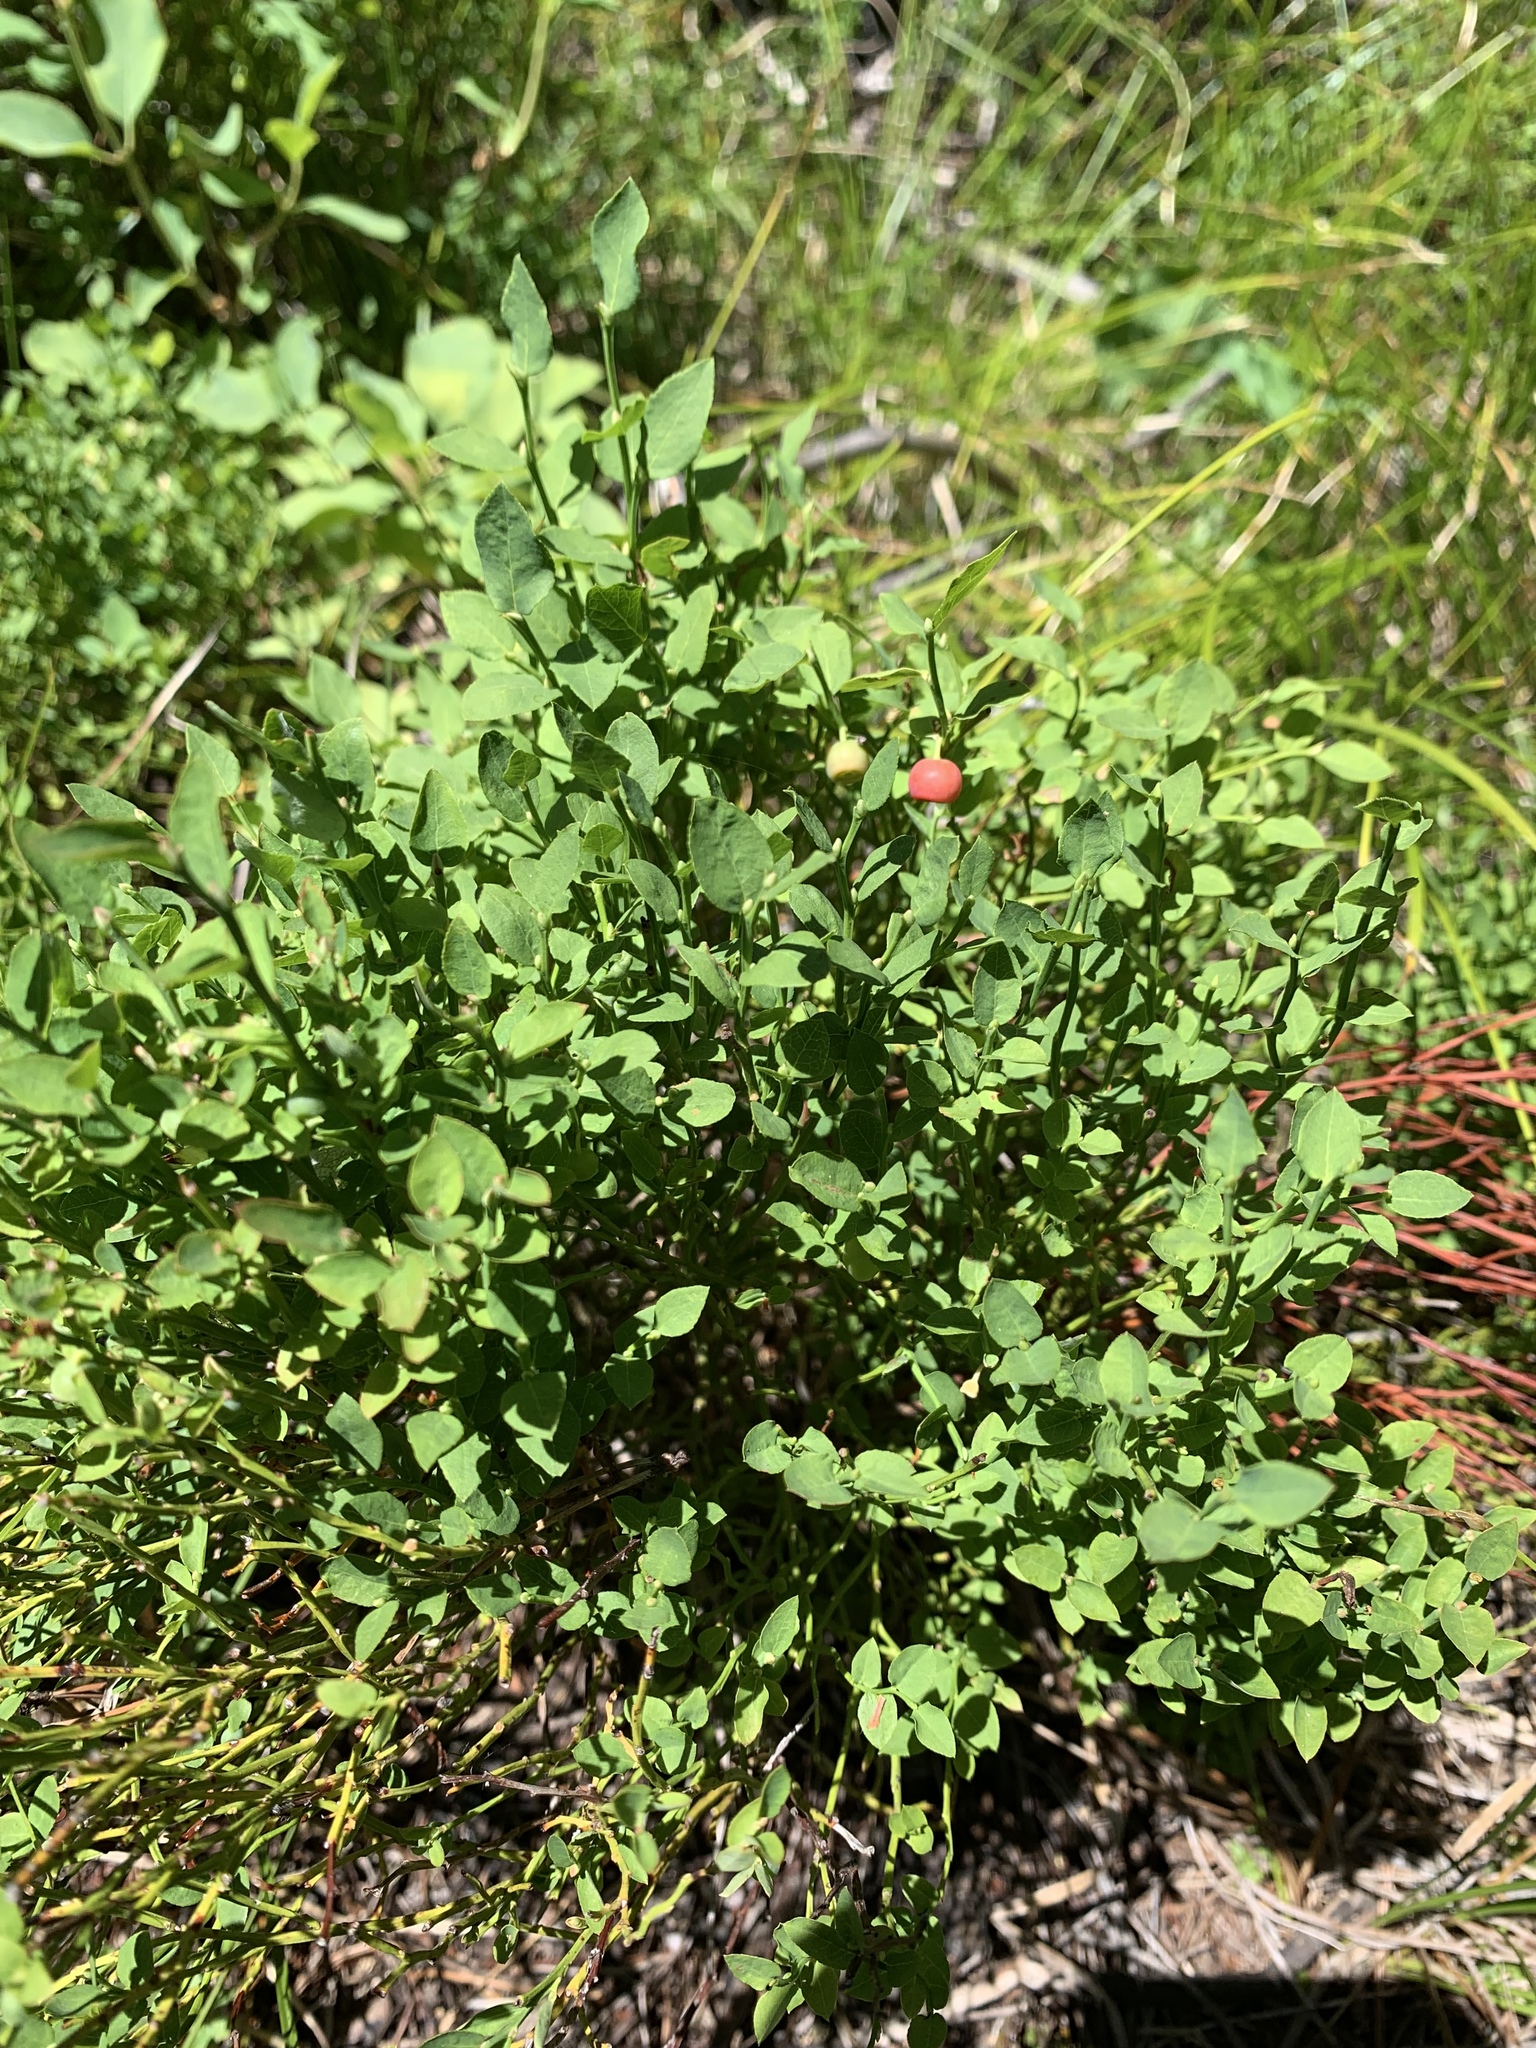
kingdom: Plantae
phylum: Tracheophyta
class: Magnoliopsida
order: Ericales
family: Ericaceae
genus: Vaccinium
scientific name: Vaccinium scoparium
